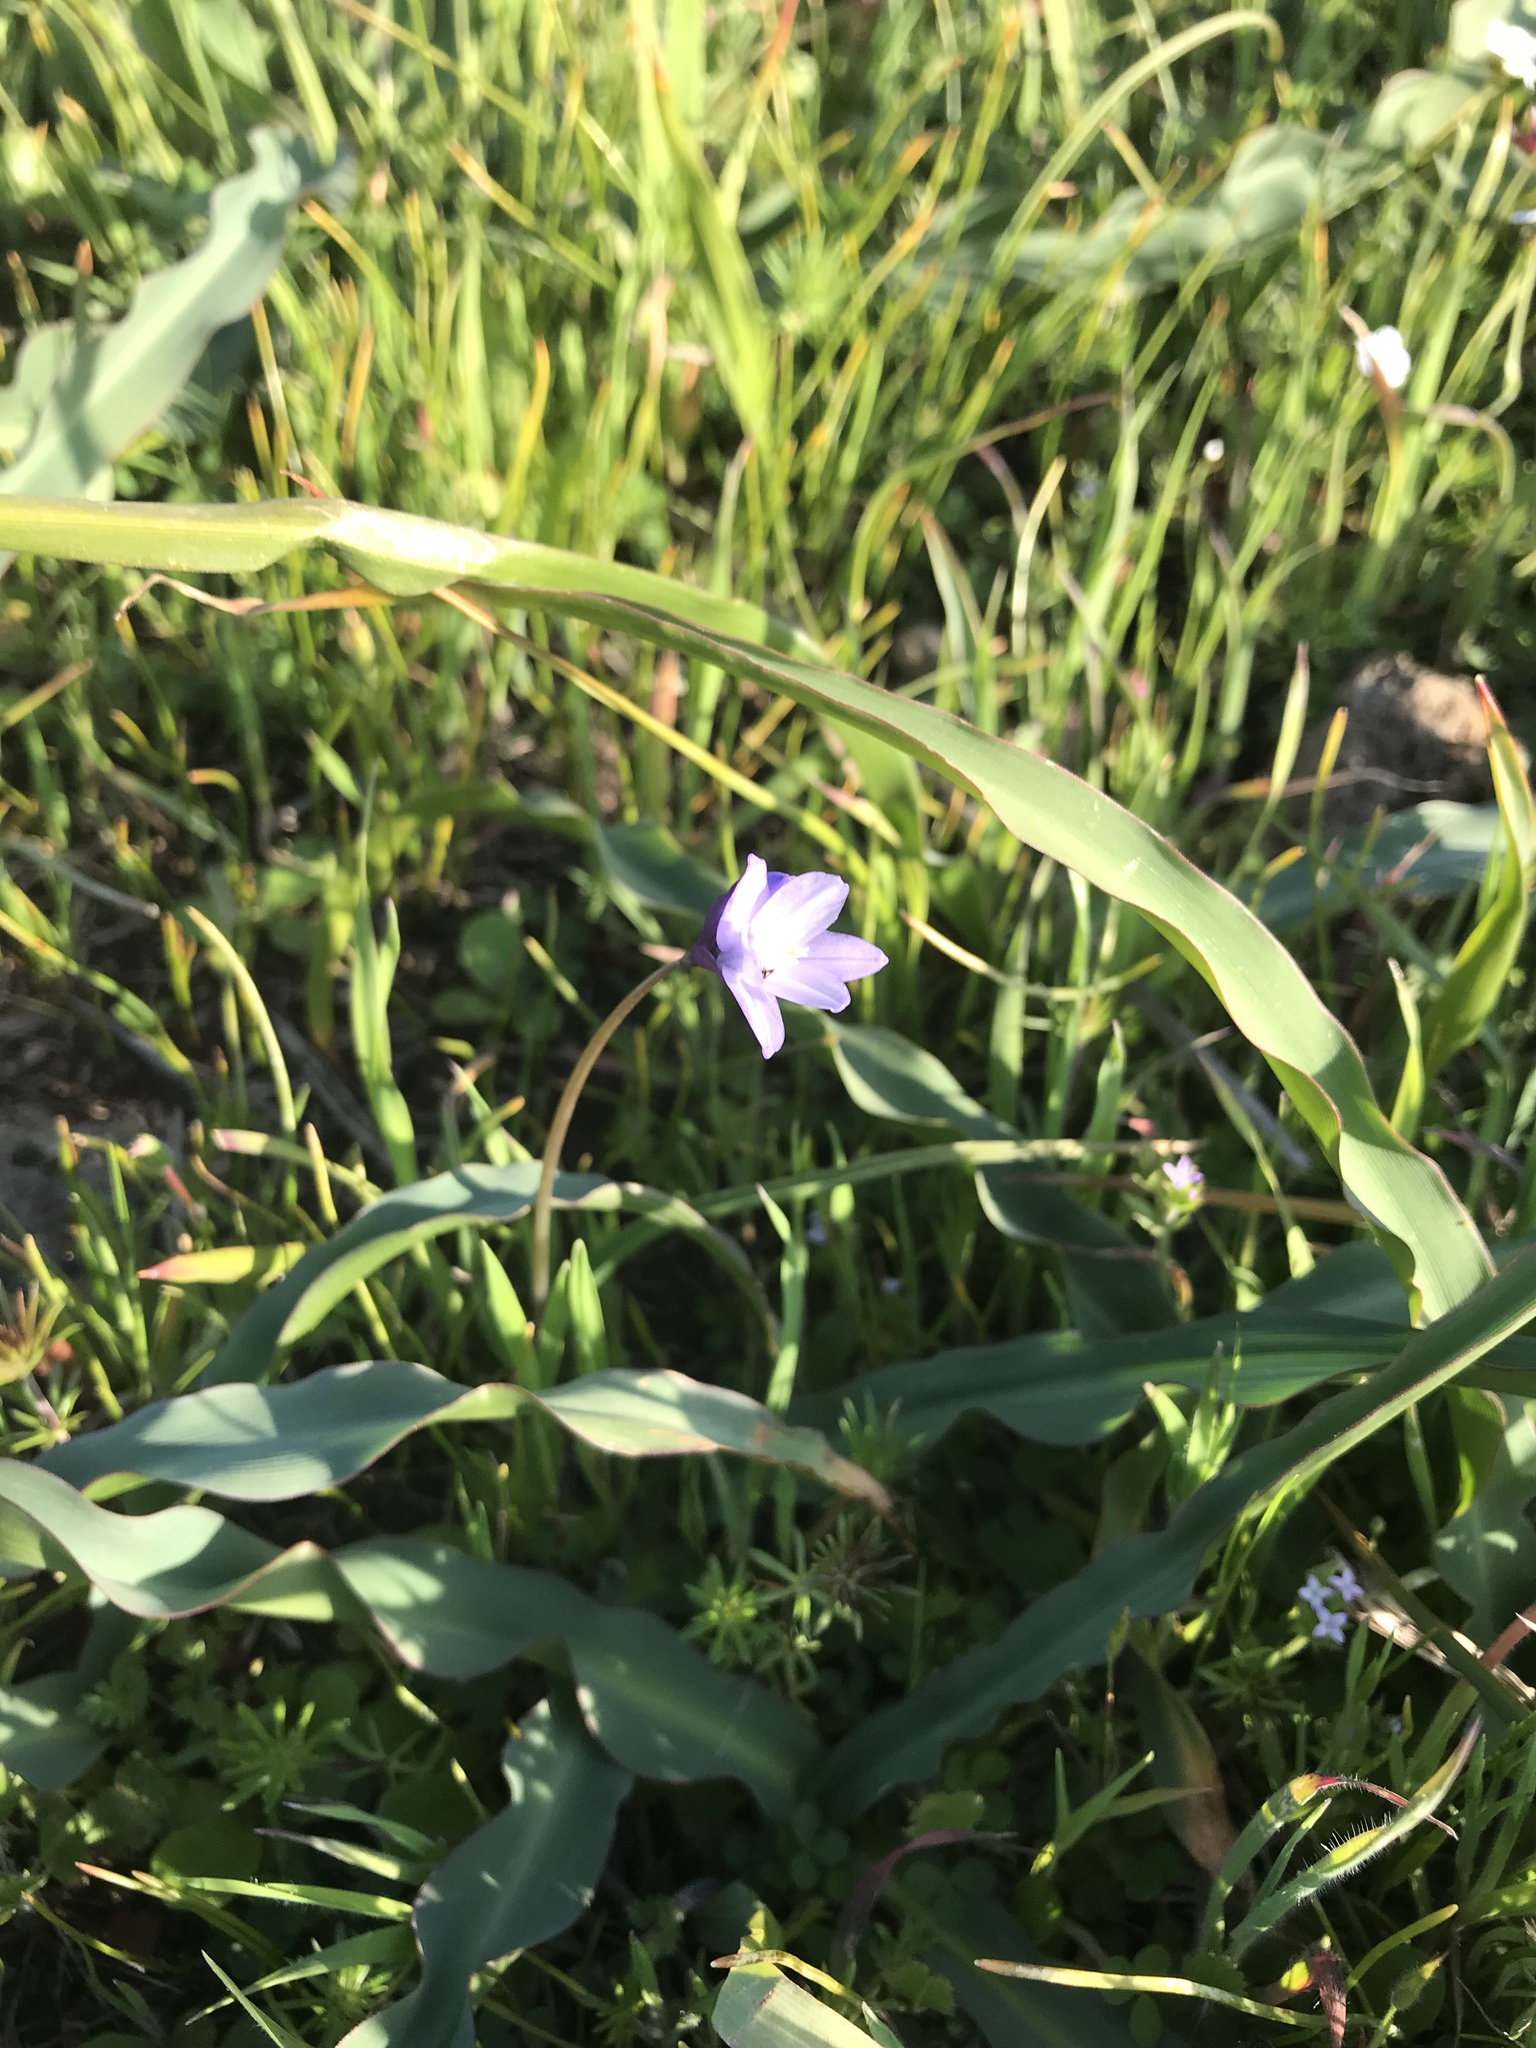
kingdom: Plantae
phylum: Tracheophyta
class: Liliopsida
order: Asparagales
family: Asparagaceae
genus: Dipterostemon
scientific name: Dipterostemon capitatus
